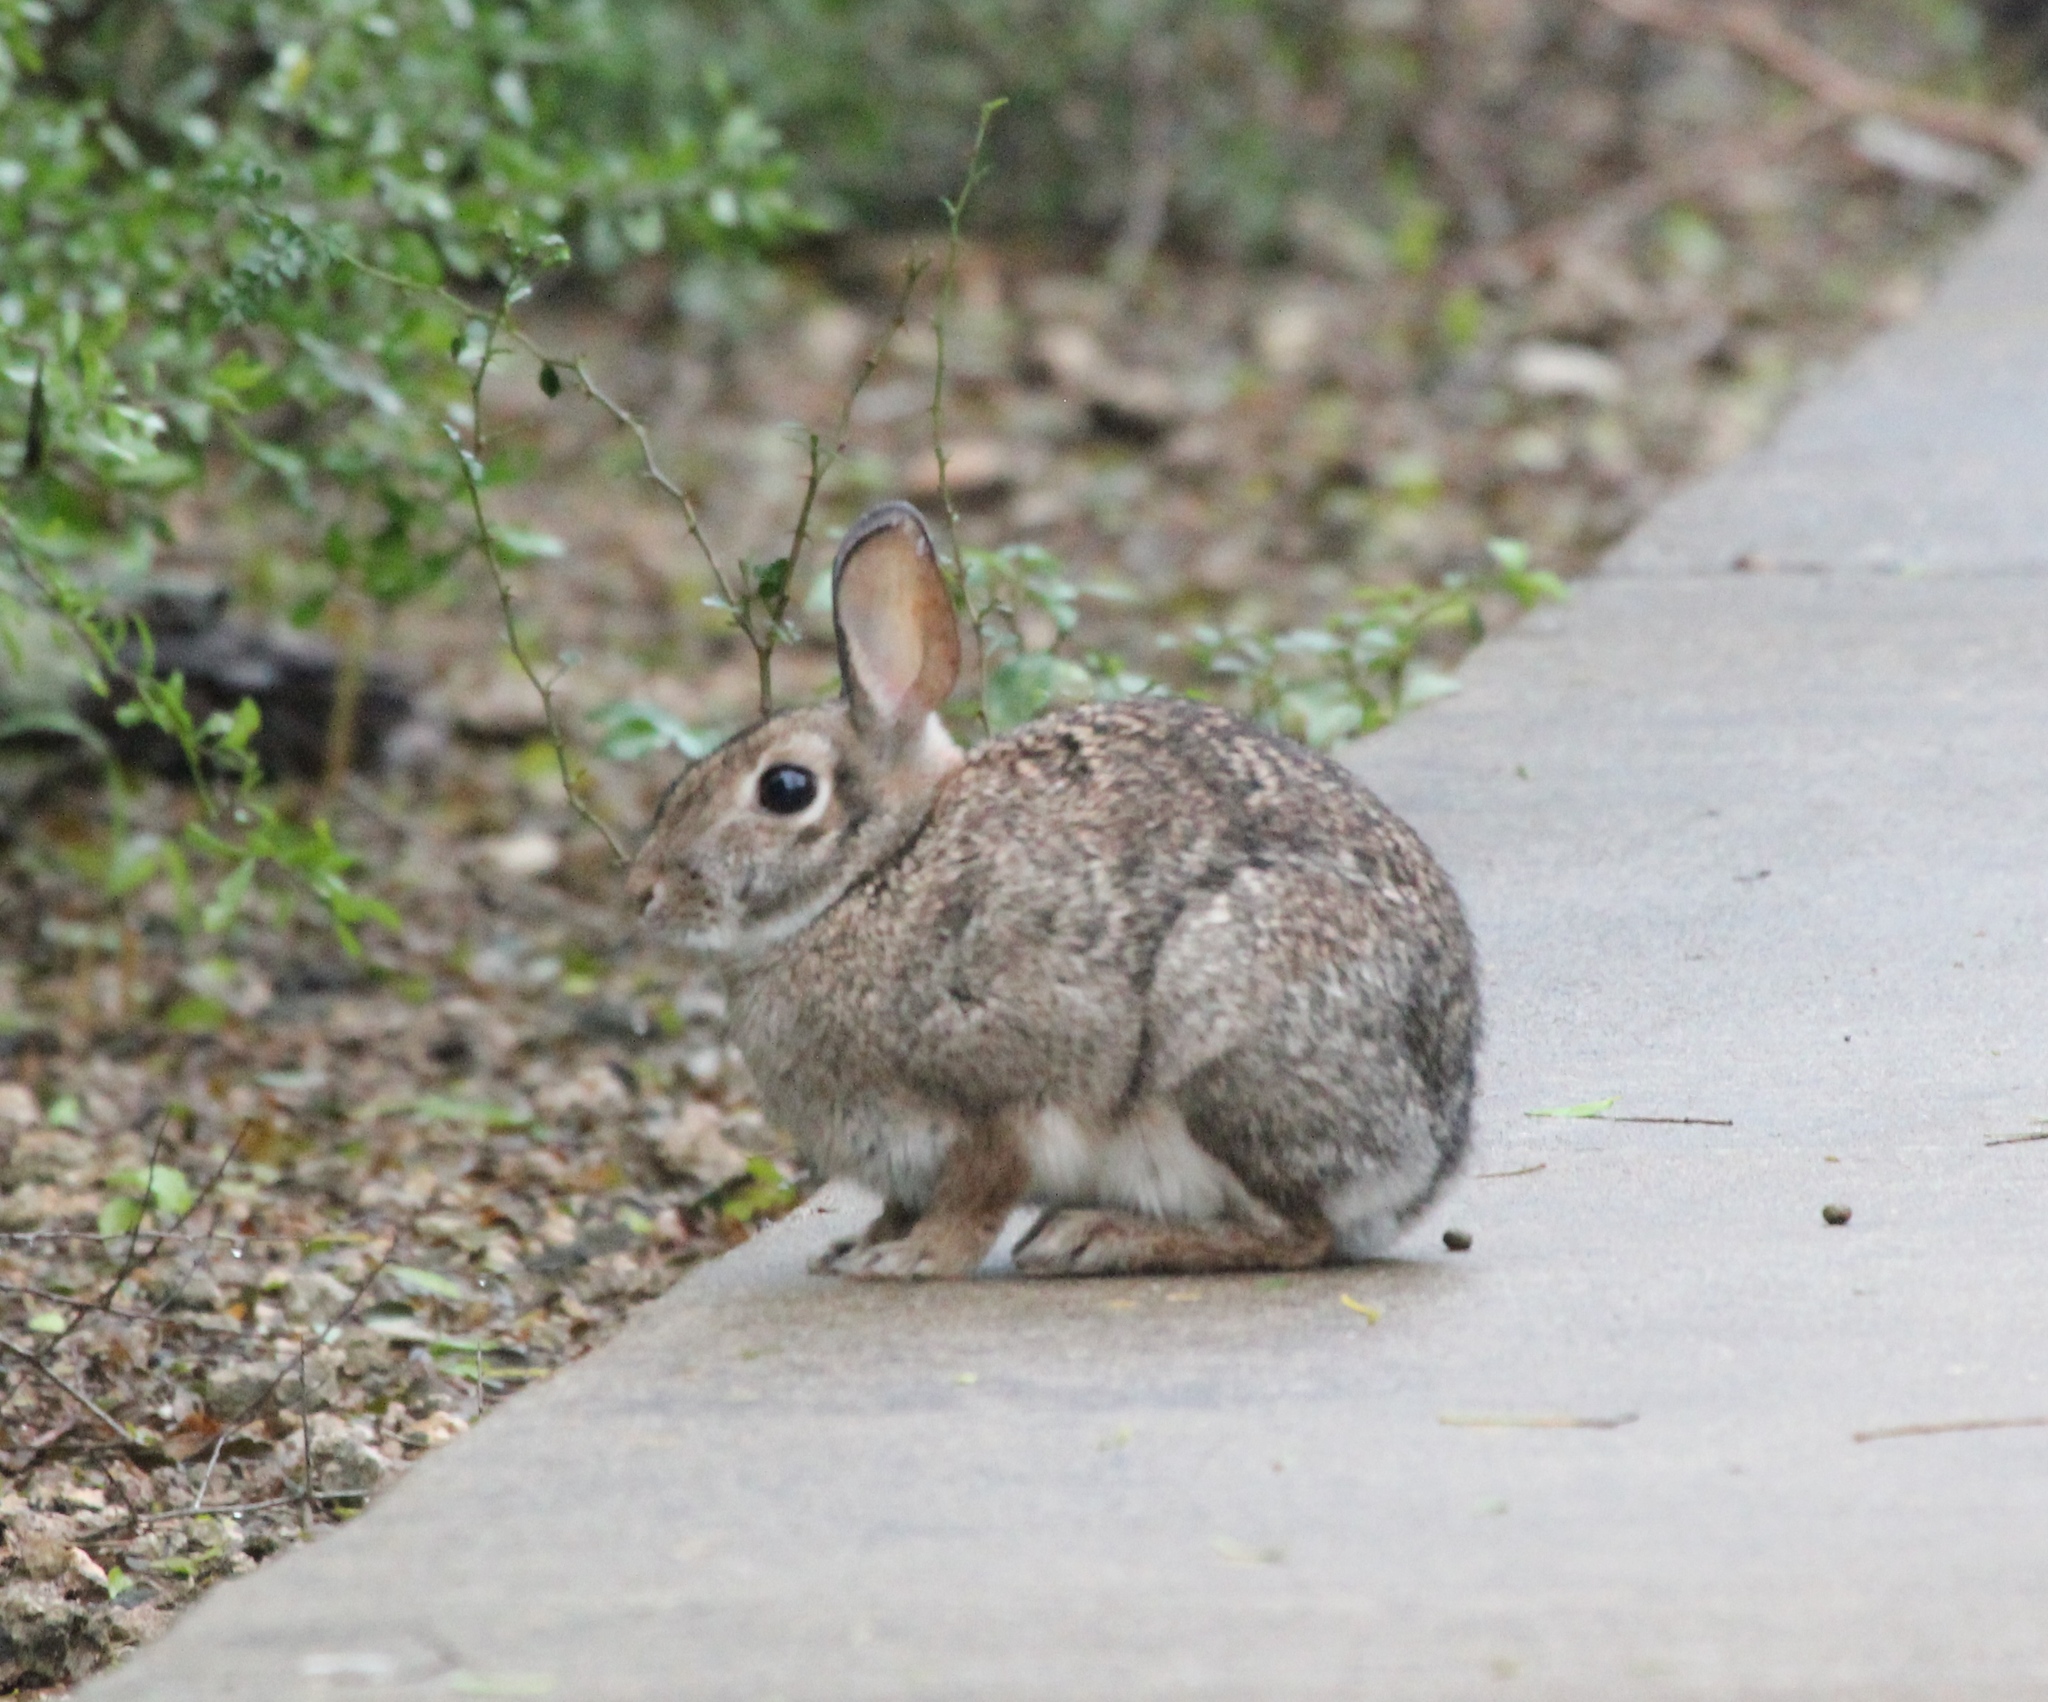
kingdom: Animalia
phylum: Chordata
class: Mammalia
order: Lagomorpha
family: Leporidae
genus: Sylvilagus
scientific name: Sylvilagus floridanus
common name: Eastern cottontail
